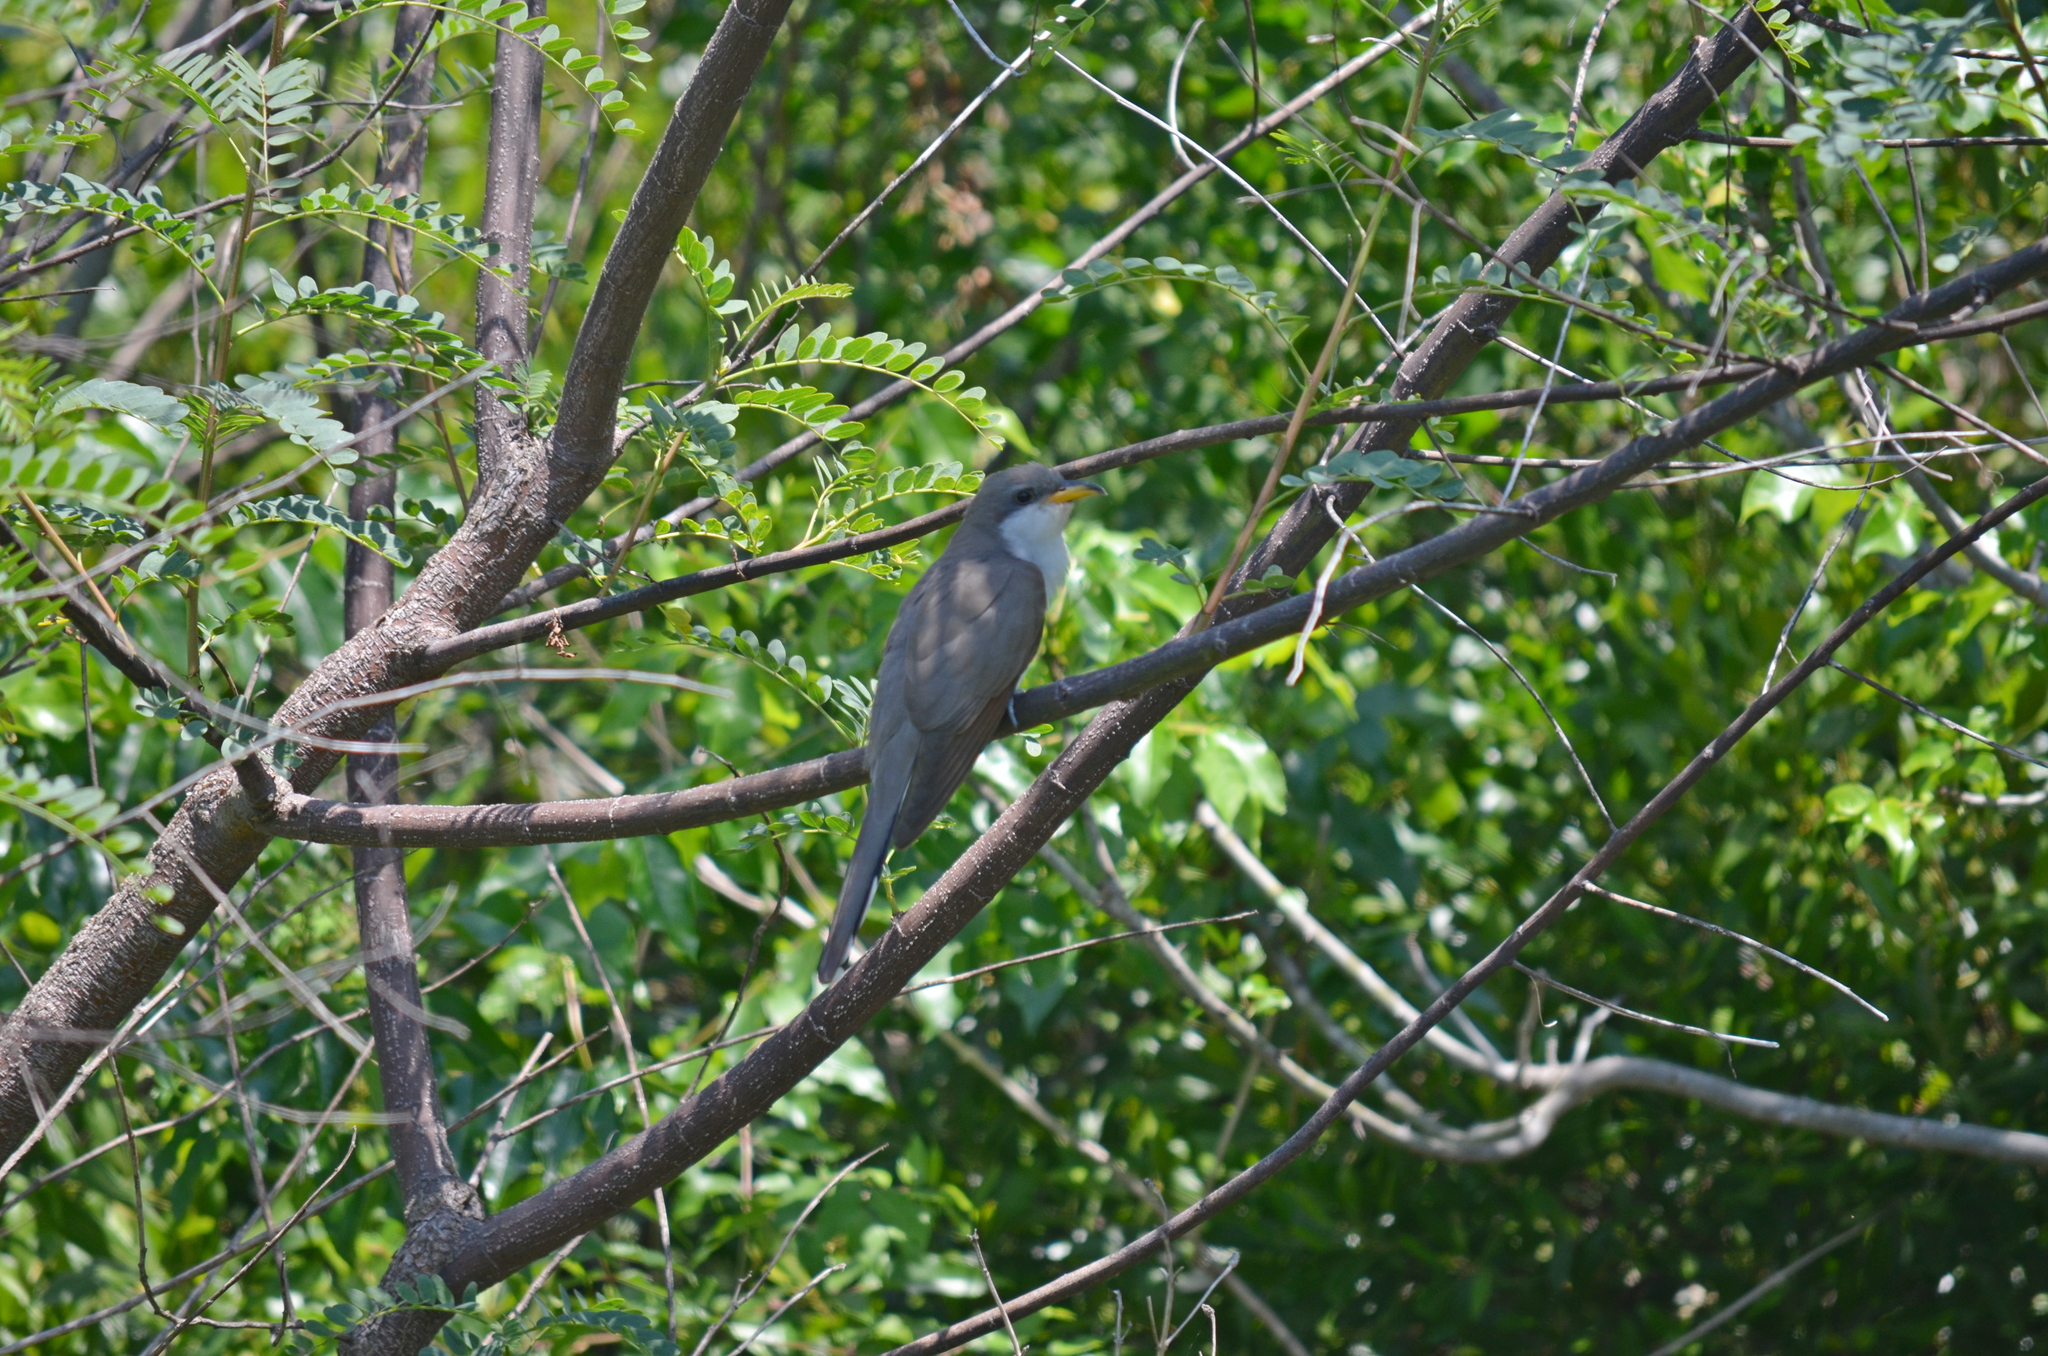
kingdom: Animalia
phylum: Chordata
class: Aves
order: Cuculiformes
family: Cuculidae
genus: Coccyzus
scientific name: Coccyzus americanus
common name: Yellow-billed cuckoo
